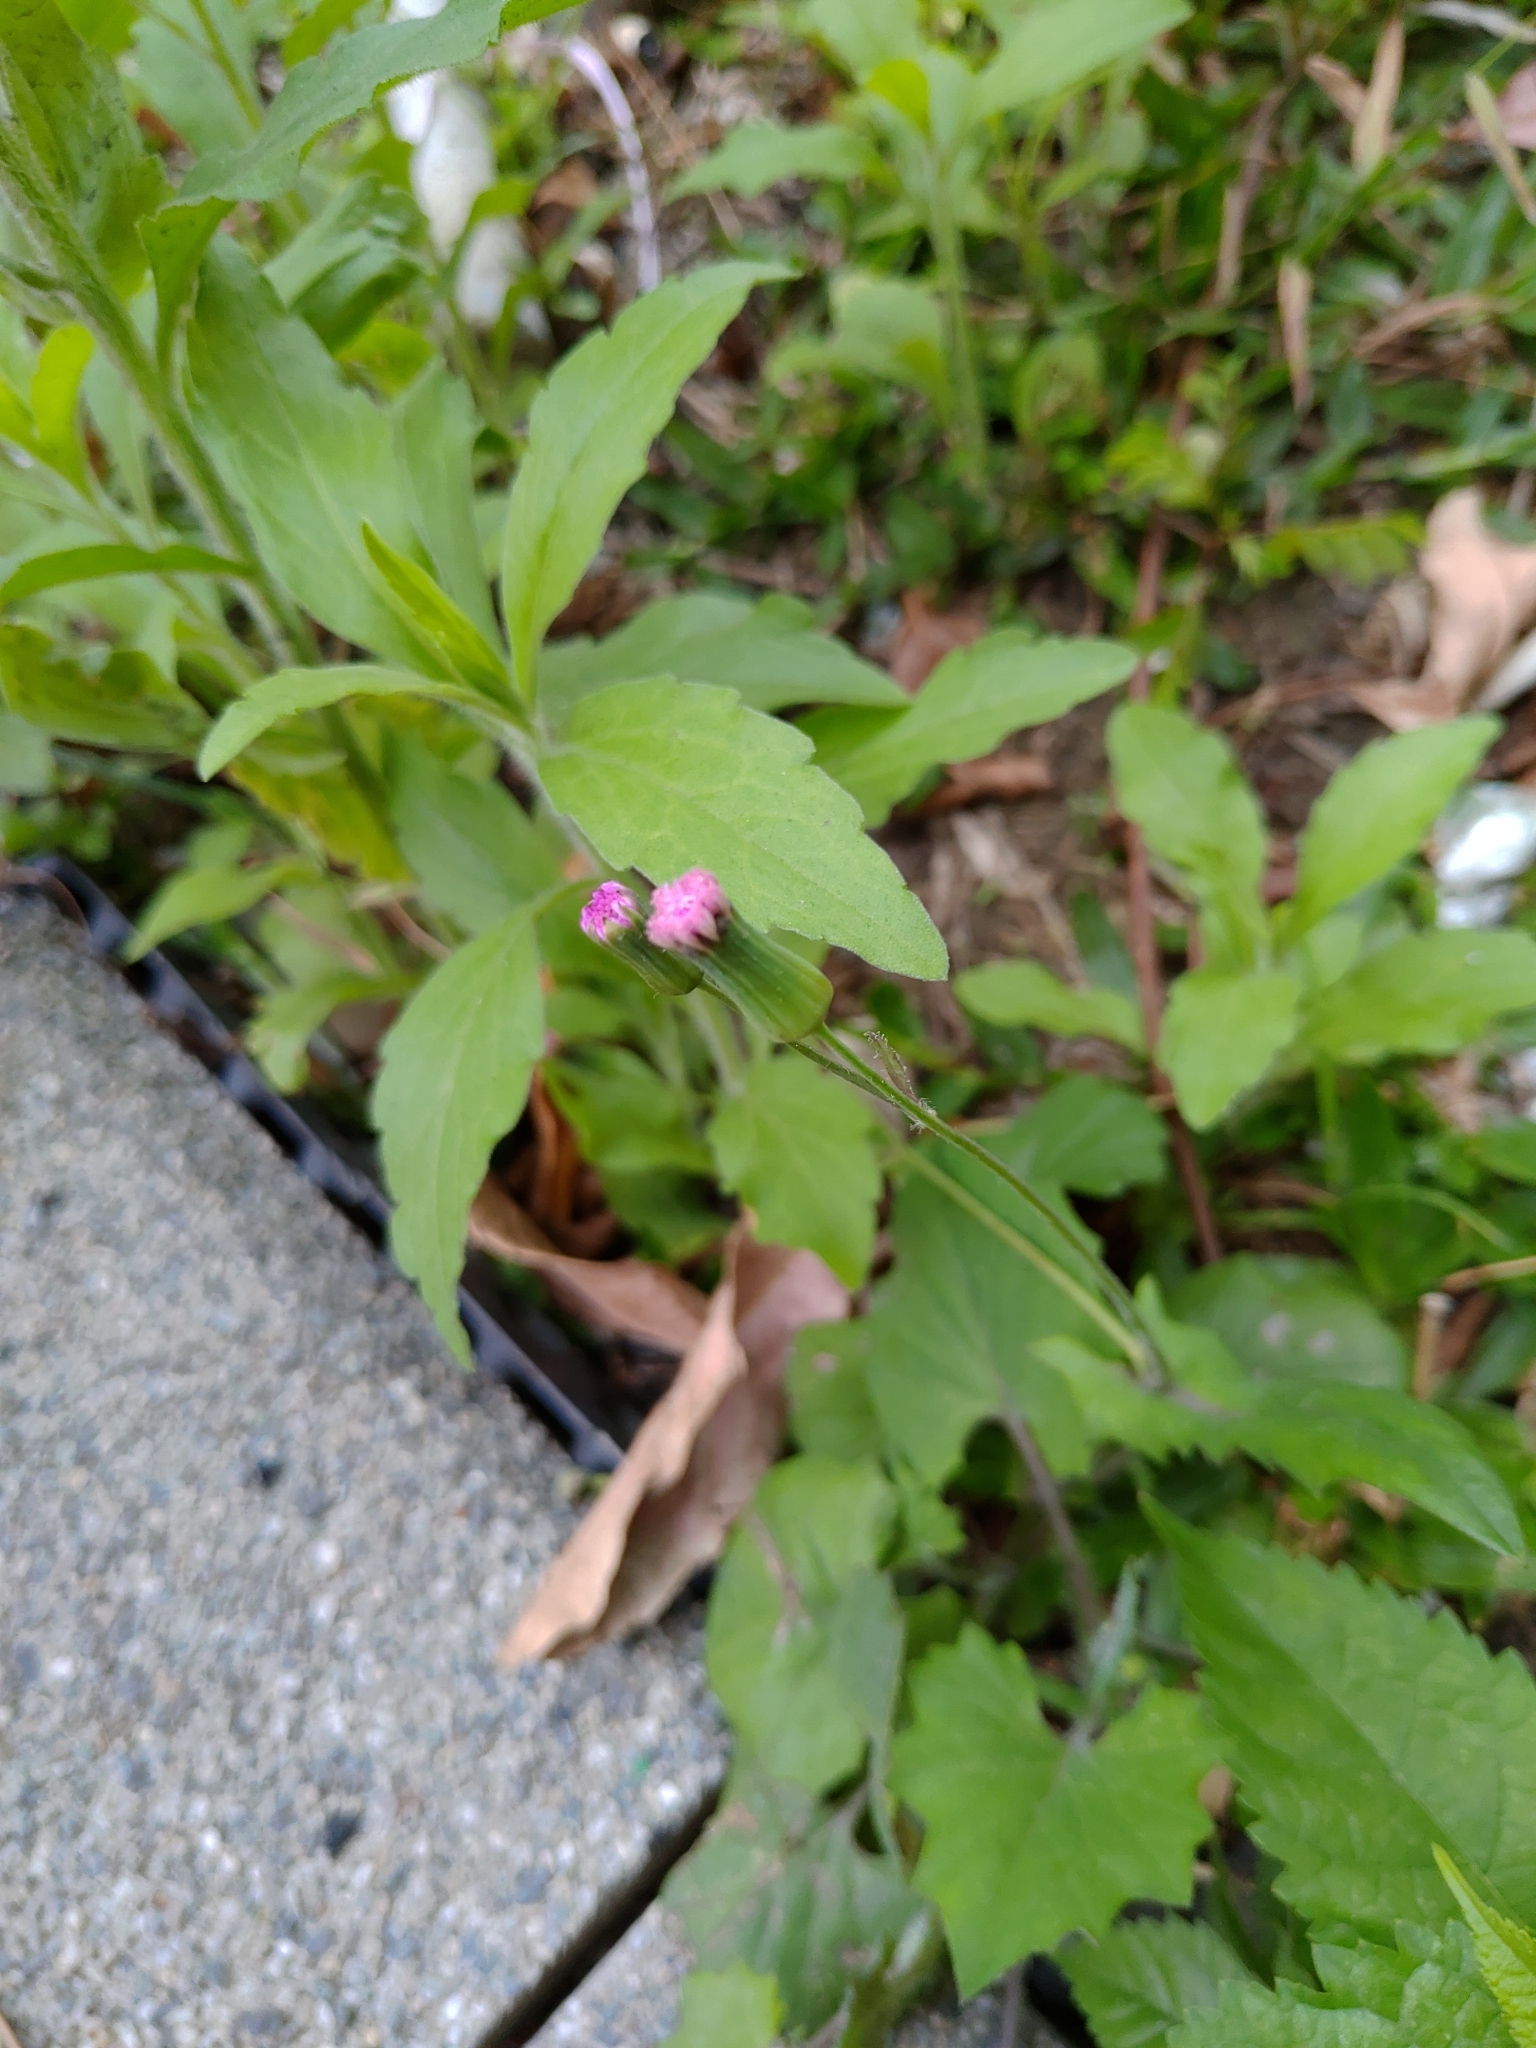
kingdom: Plantae
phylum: Tracheophyta
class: Magnoliopsida
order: Asterales
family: Asteraceae
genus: Emilia
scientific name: Emilia javanica
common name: Tassel-flower
